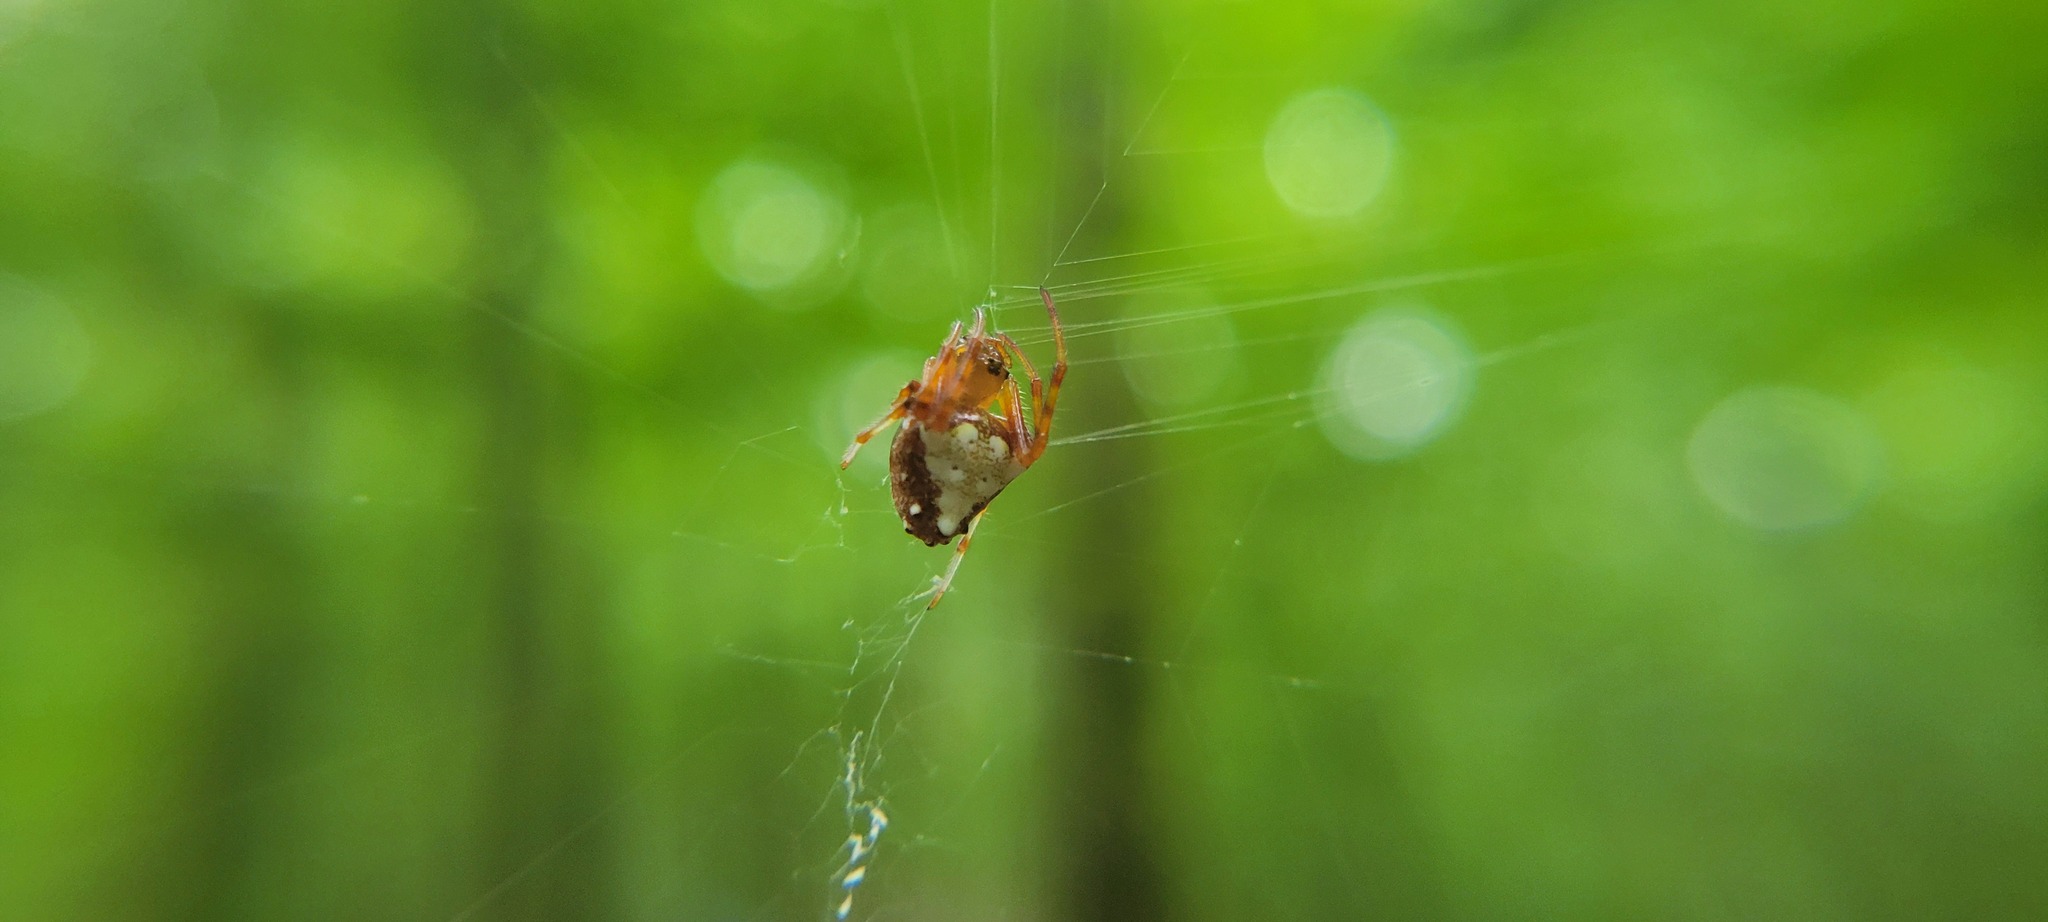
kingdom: Animalia
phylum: Arthropoda
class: Arachnida
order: Araneae
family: Araneidae
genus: Verrucosa
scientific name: Verrucosa arenata
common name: Orb weavers
